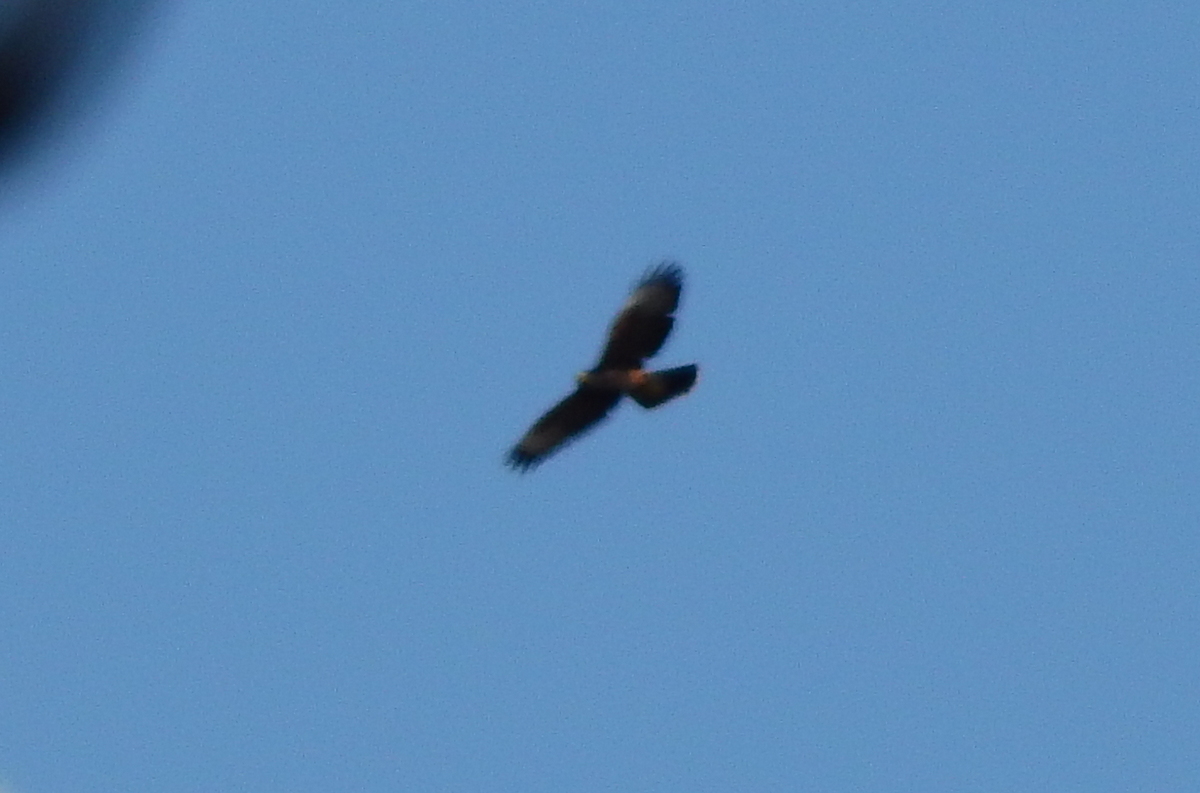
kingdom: Animalia
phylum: Chordata
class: Aves
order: Accipitriformes
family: Accipitridae
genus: Parabuteo
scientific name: Parabuteo unicinctus
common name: Harris's hawk
